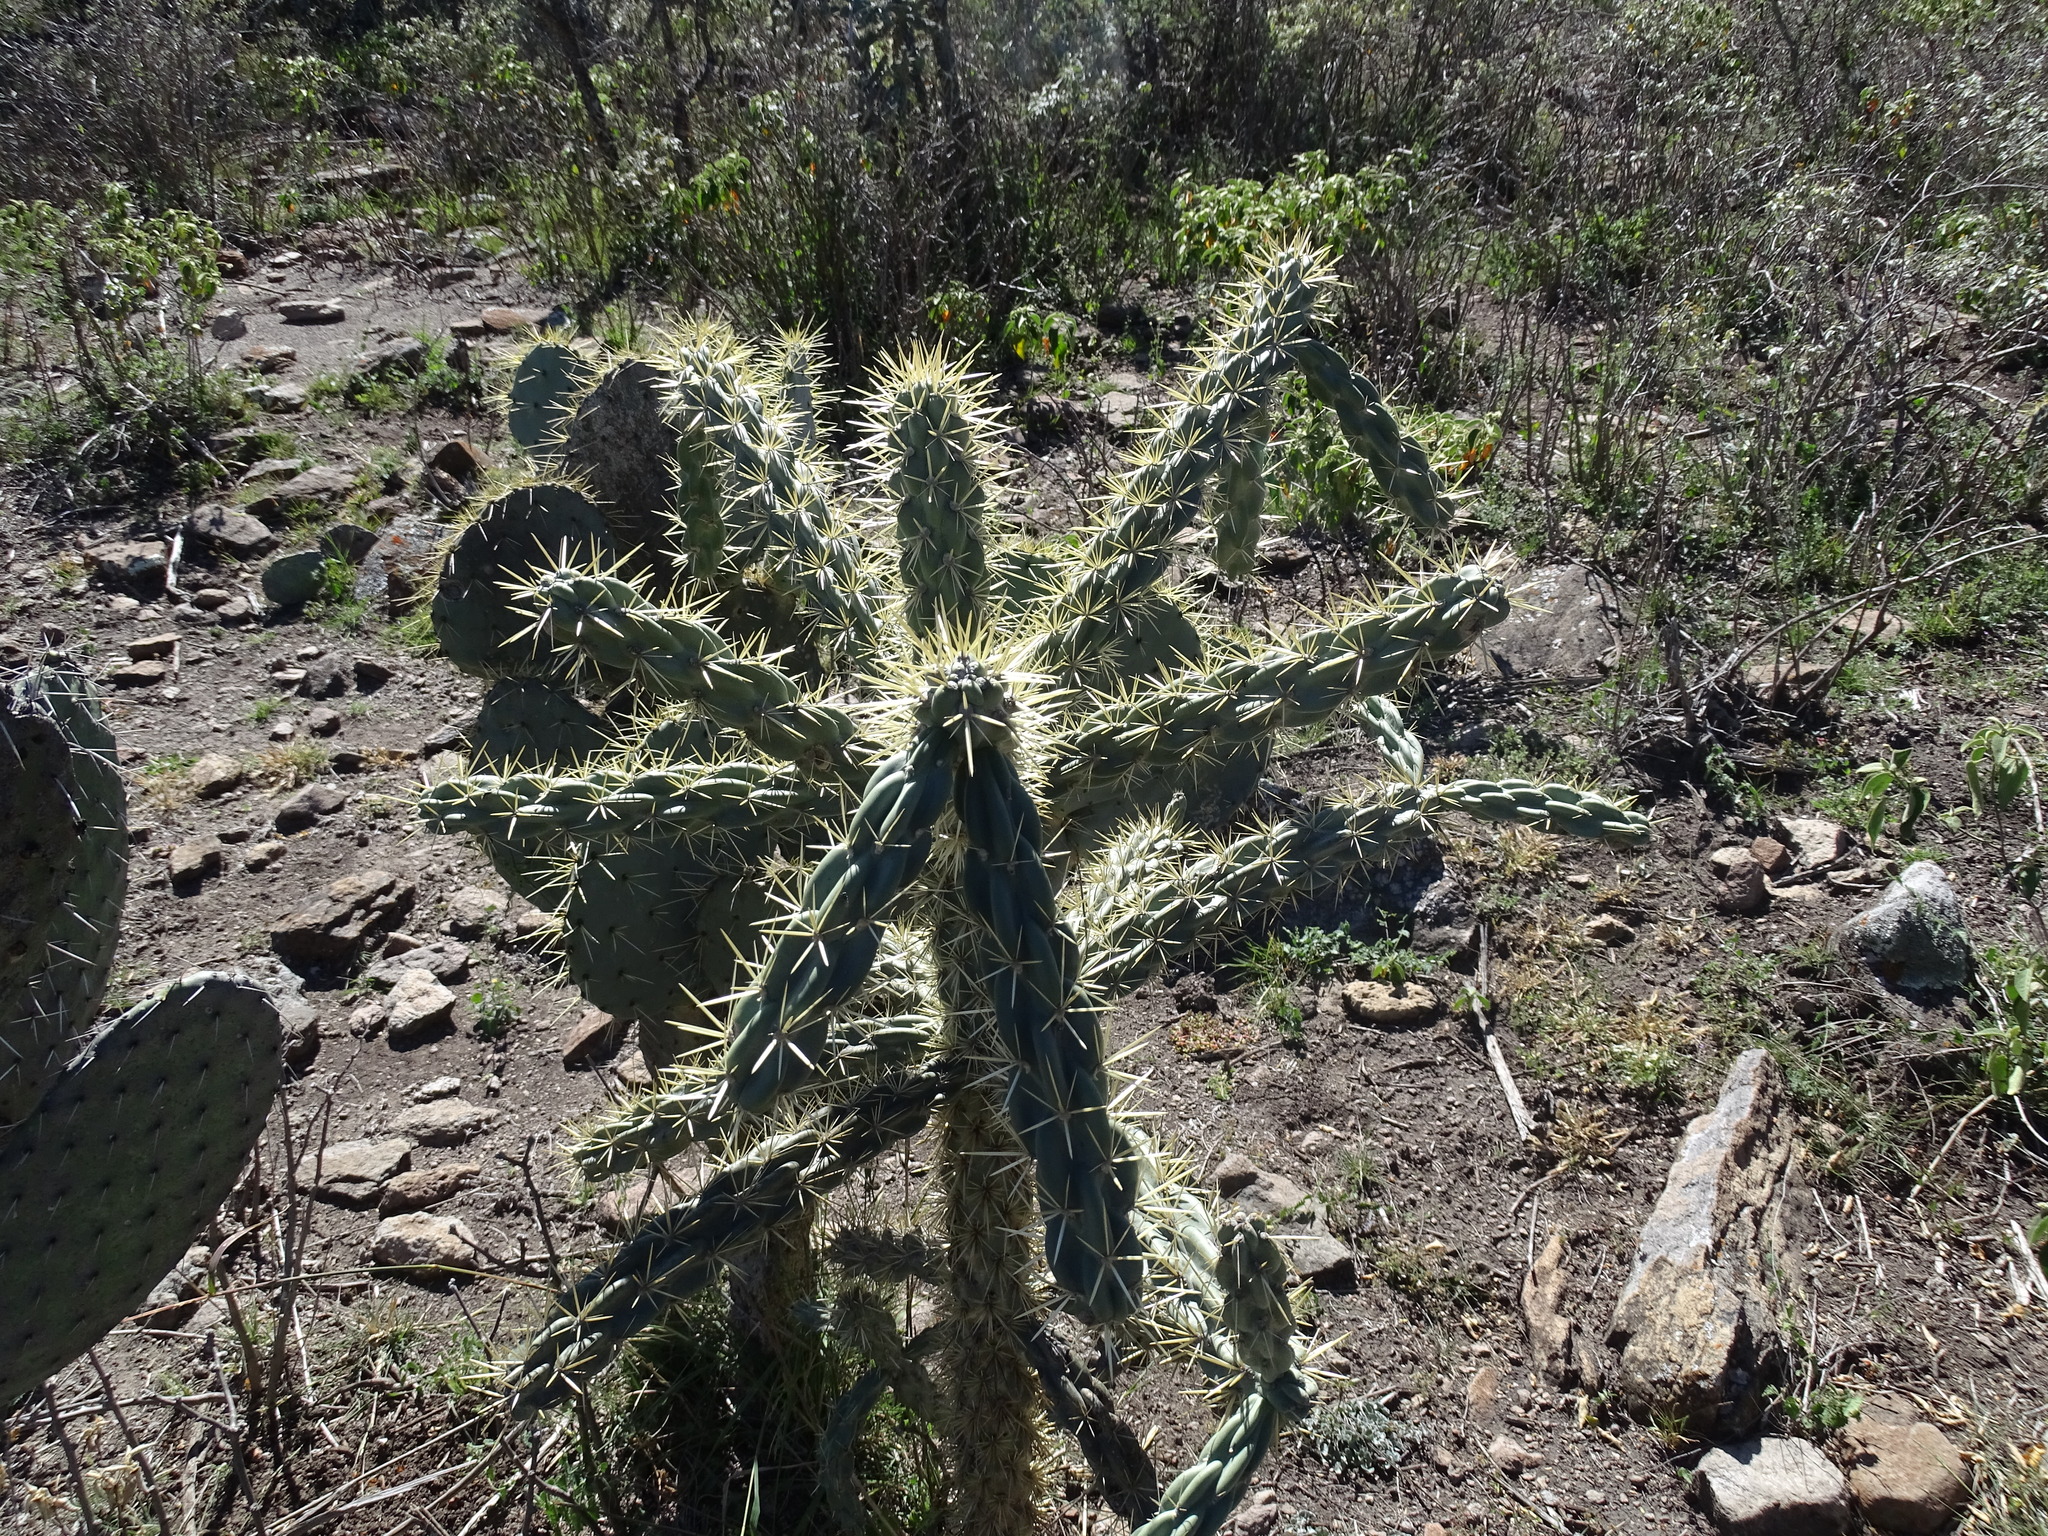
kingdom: Plantae
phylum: Tracheophyta
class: Magnoliopsida
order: Caryophyllales
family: Cactaceae
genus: Cylindropuntia
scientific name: Cylindropuntia imbricata
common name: Candelabrum cactus
